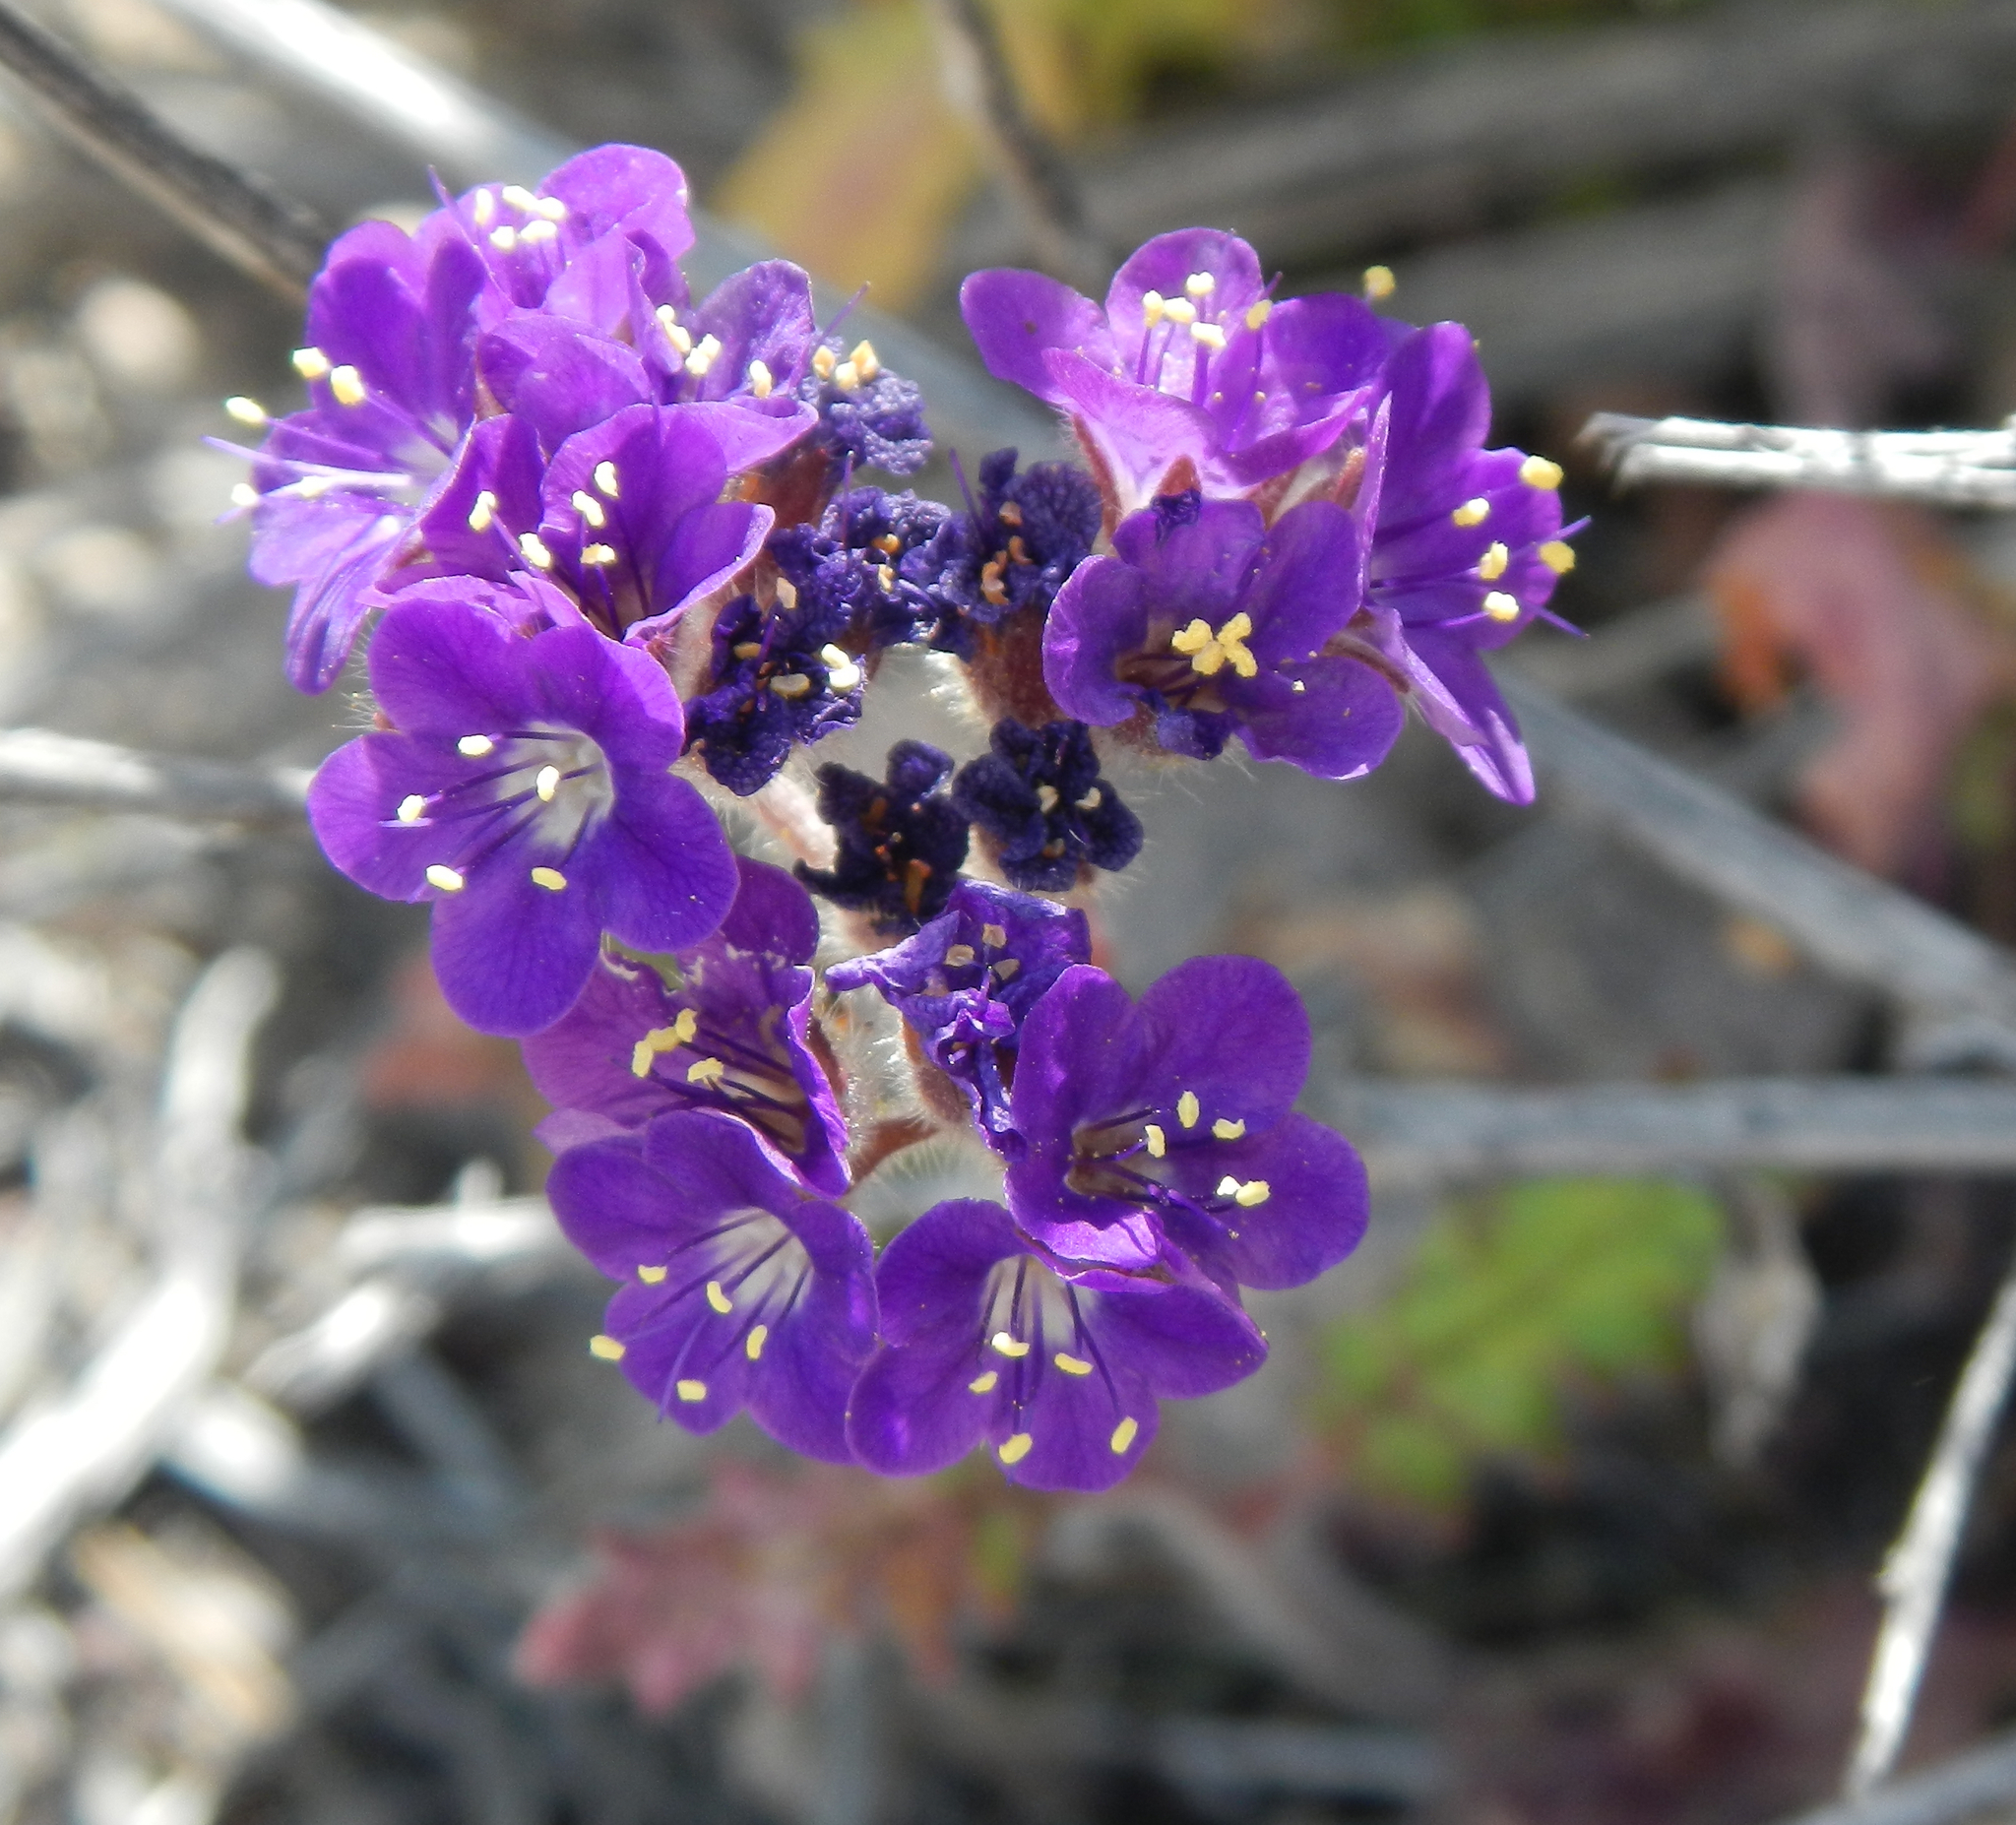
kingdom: Plantae
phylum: Tracheophyta
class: Magnoliopsida
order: Boraginales
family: Hydrophyllaceae
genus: Phacelia
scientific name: Phacelia crenulata
